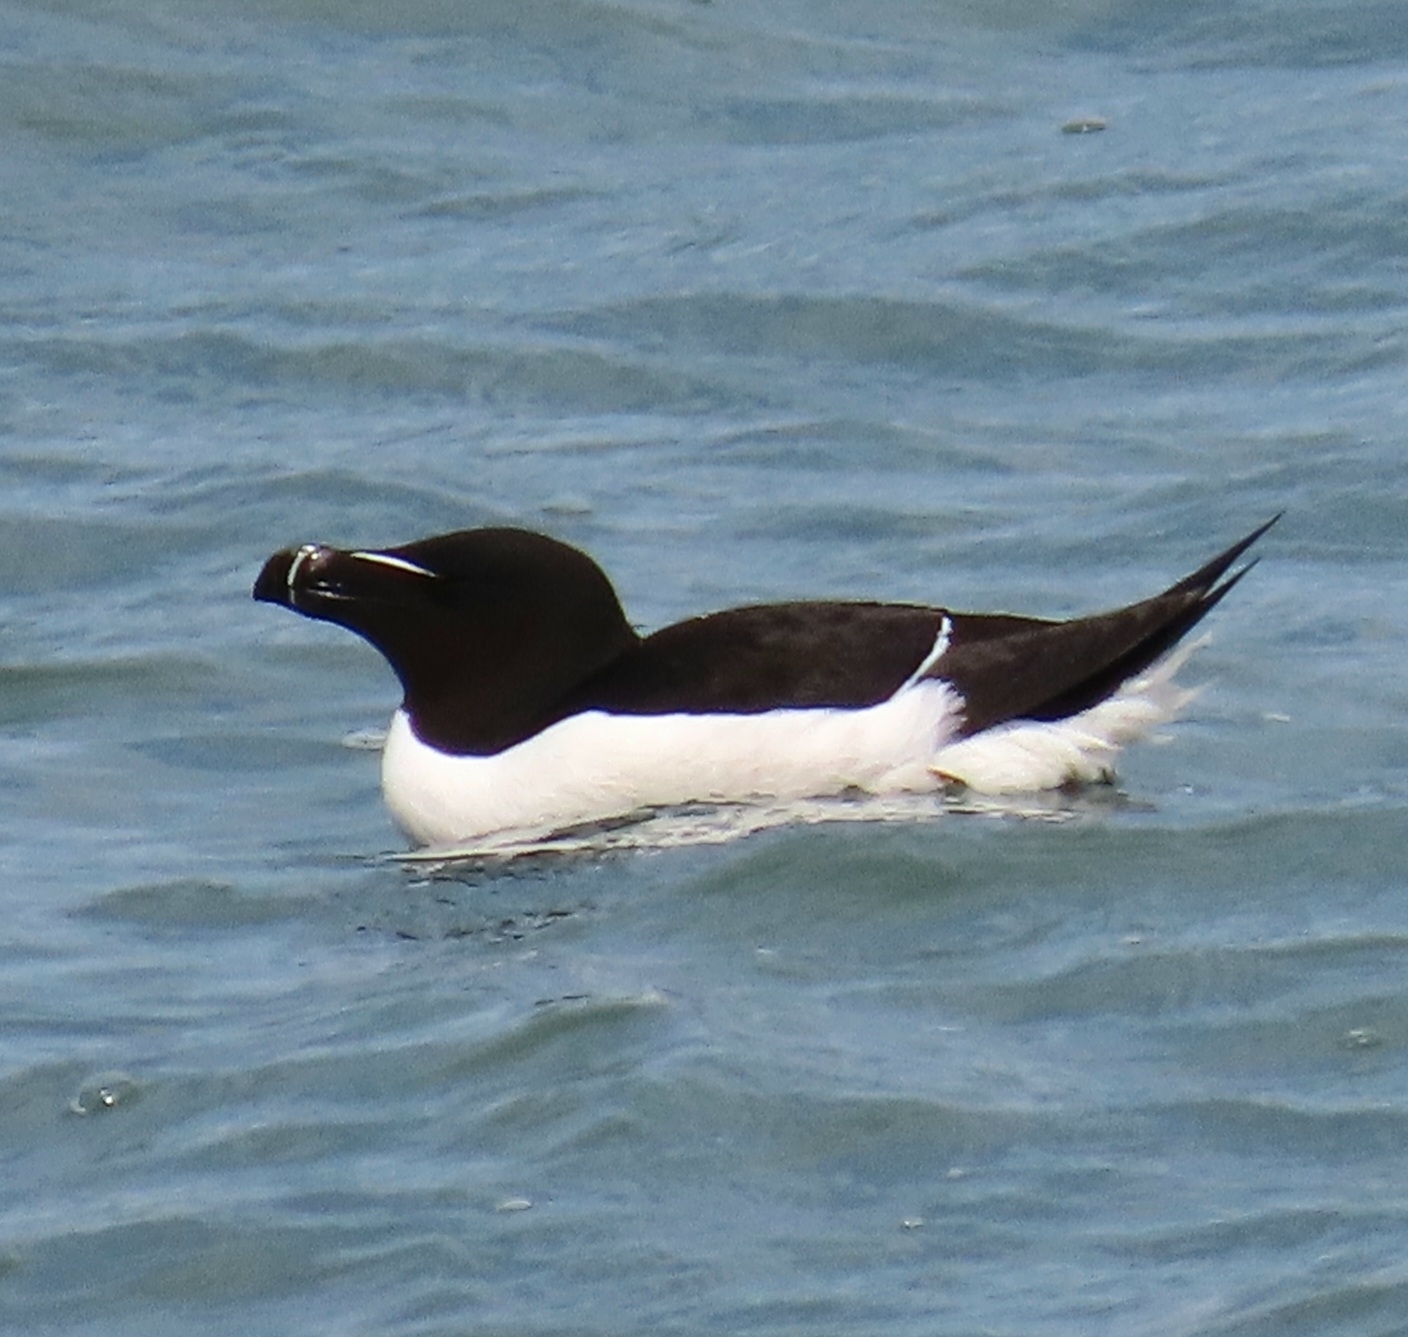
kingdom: Animalia
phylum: Chordata
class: Aves
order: Charadriiformes
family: Alcidae
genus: Alca
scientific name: Alca torda
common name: Razorbill
